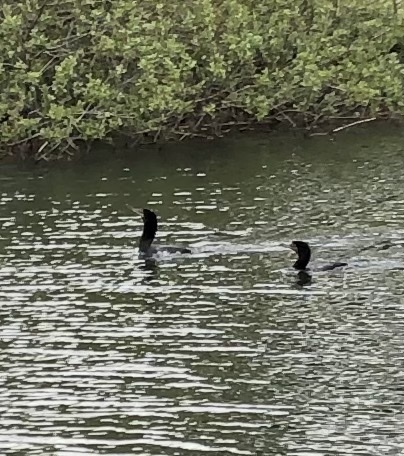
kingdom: Animalia
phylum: Chordata
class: Aves
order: Suliformes
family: Phalacrocoracidae
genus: Phalacrocorax
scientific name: Phalacrocorax auritus
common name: Double-crested cormorant
